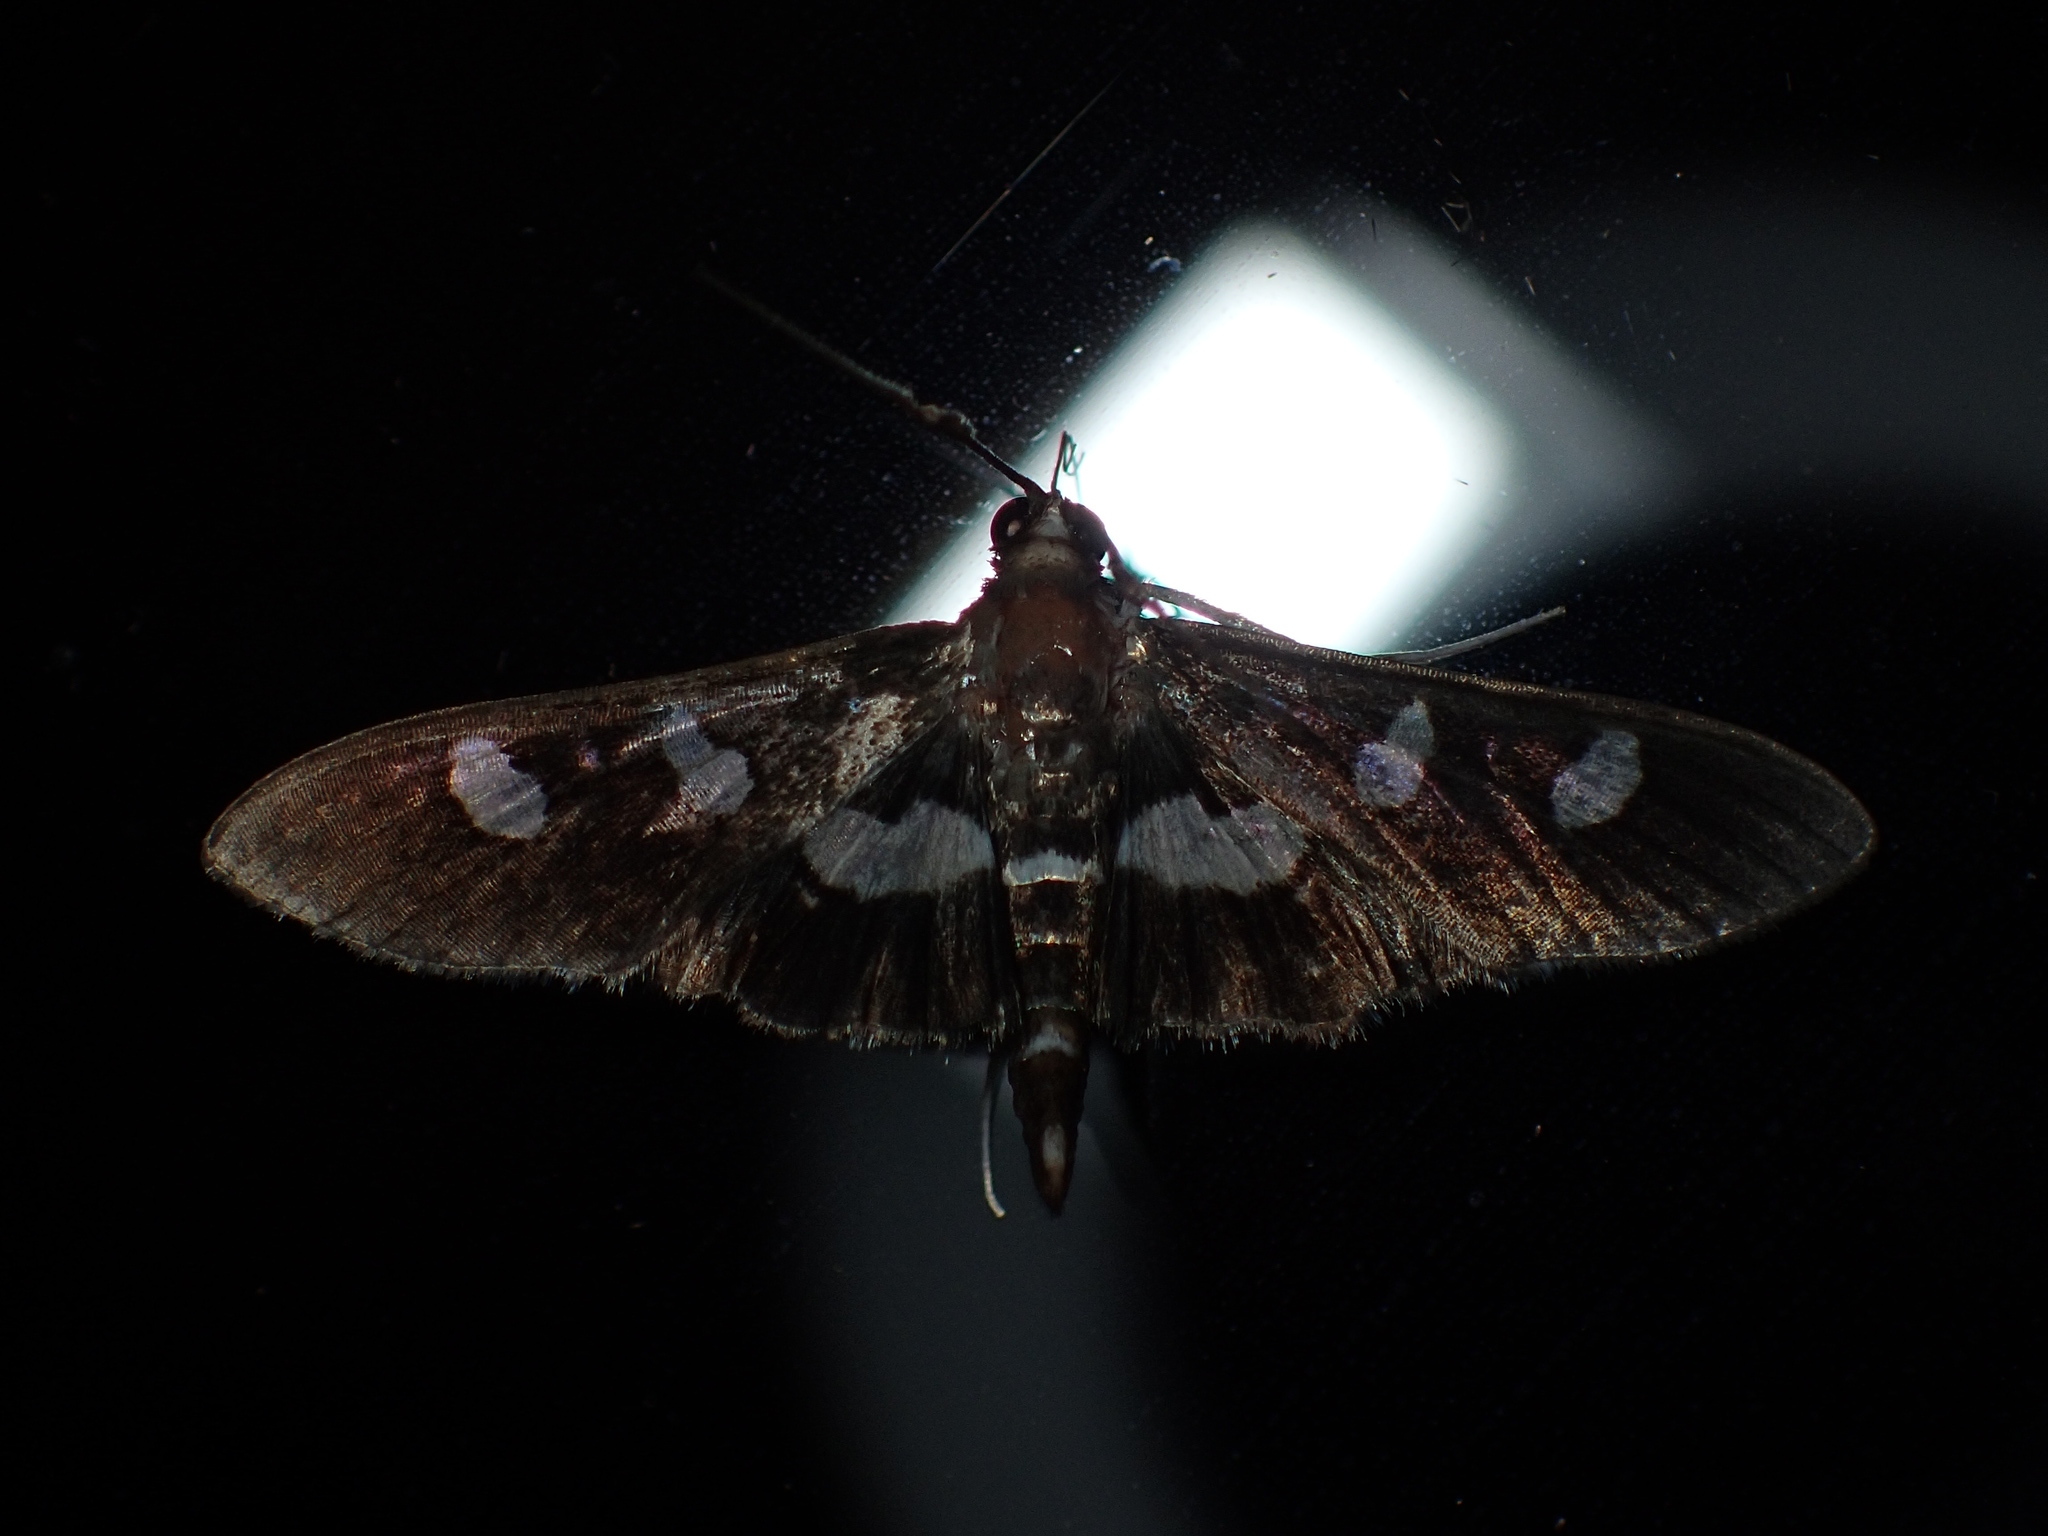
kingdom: Animalia
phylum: Arthropoda
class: Insecta
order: Lepidoptera
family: Crambidae
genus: Desmia
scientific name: Desmia
